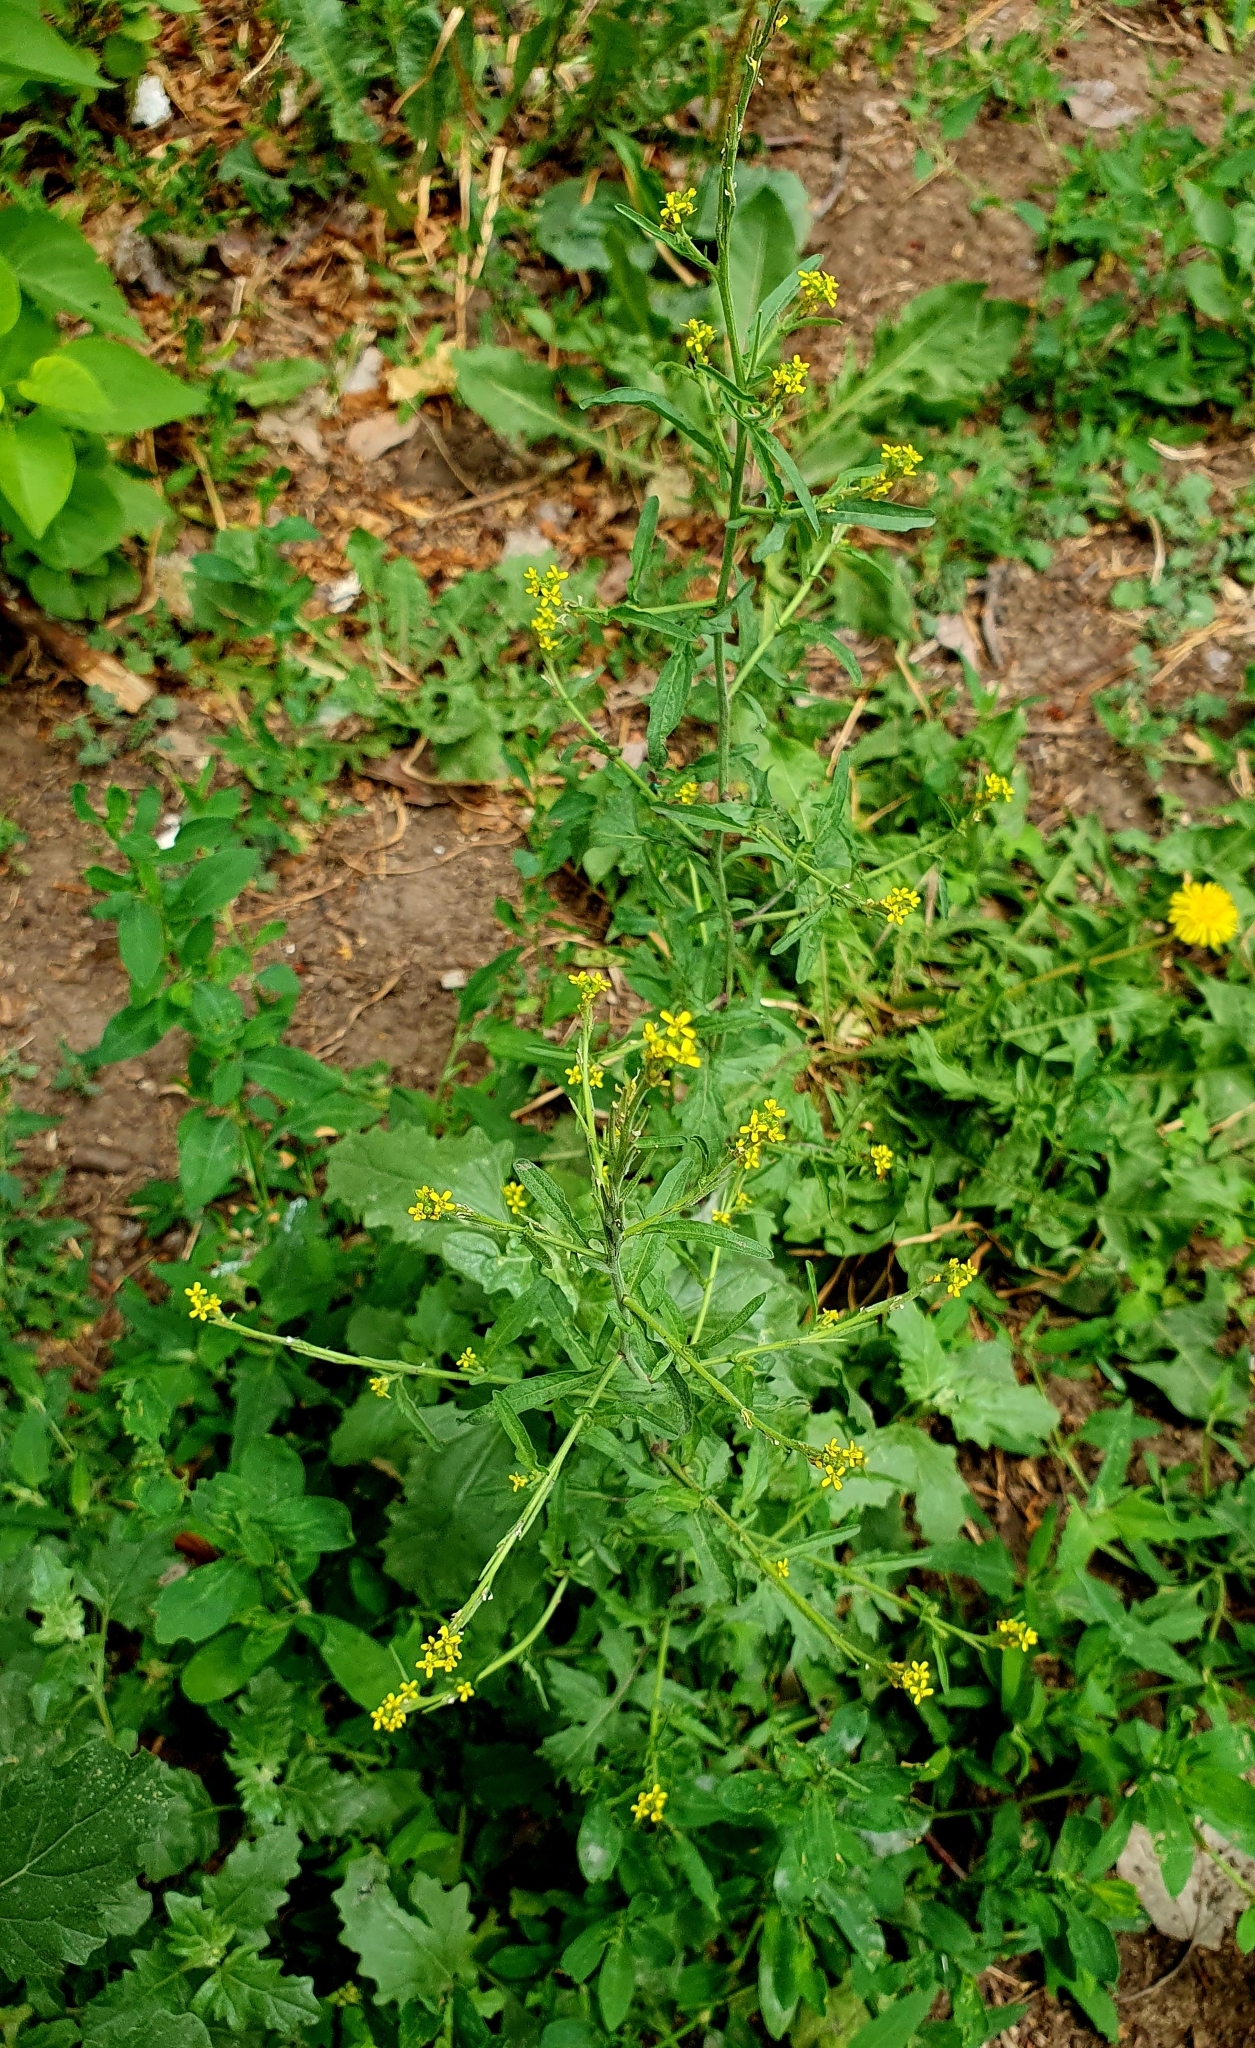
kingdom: Plantae
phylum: Tracheophyta
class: Magnoliopsida
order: Brassicales
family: Brassicaceae
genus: Sisymbrium
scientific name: Sisymbrium officinale
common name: Hedge mustard
